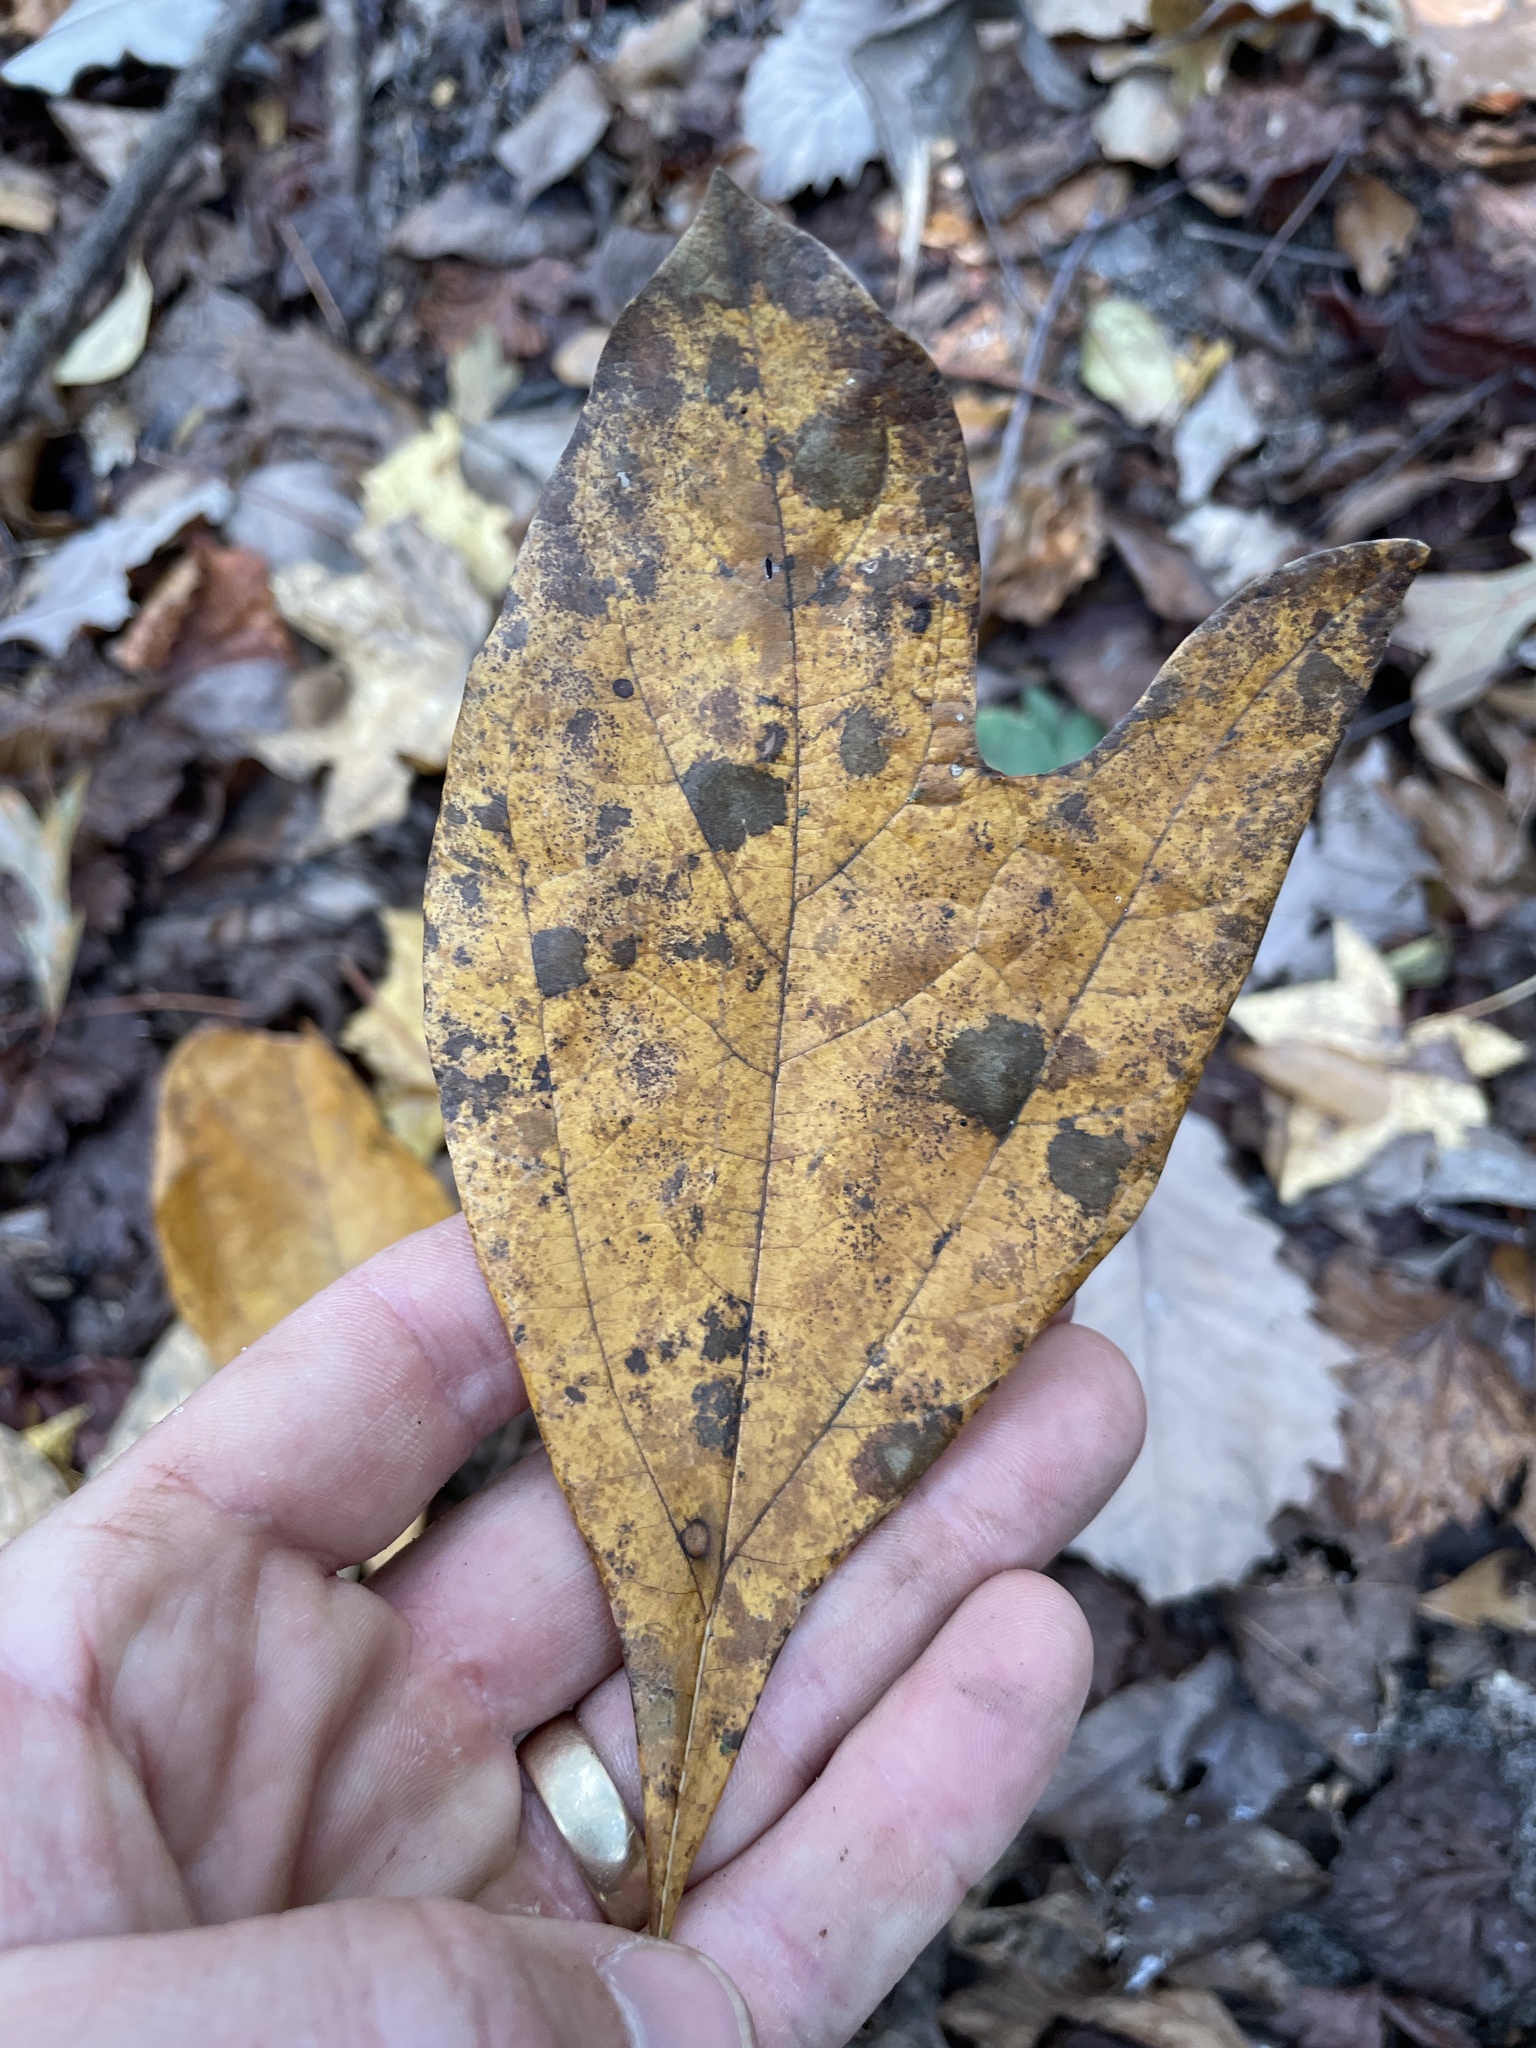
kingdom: Plantae
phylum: Tracheophyta
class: Magnoliopsida
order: Laurales
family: Lauraceae
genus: Sassafras
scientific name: Sassafras albidum
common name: Sassafras
